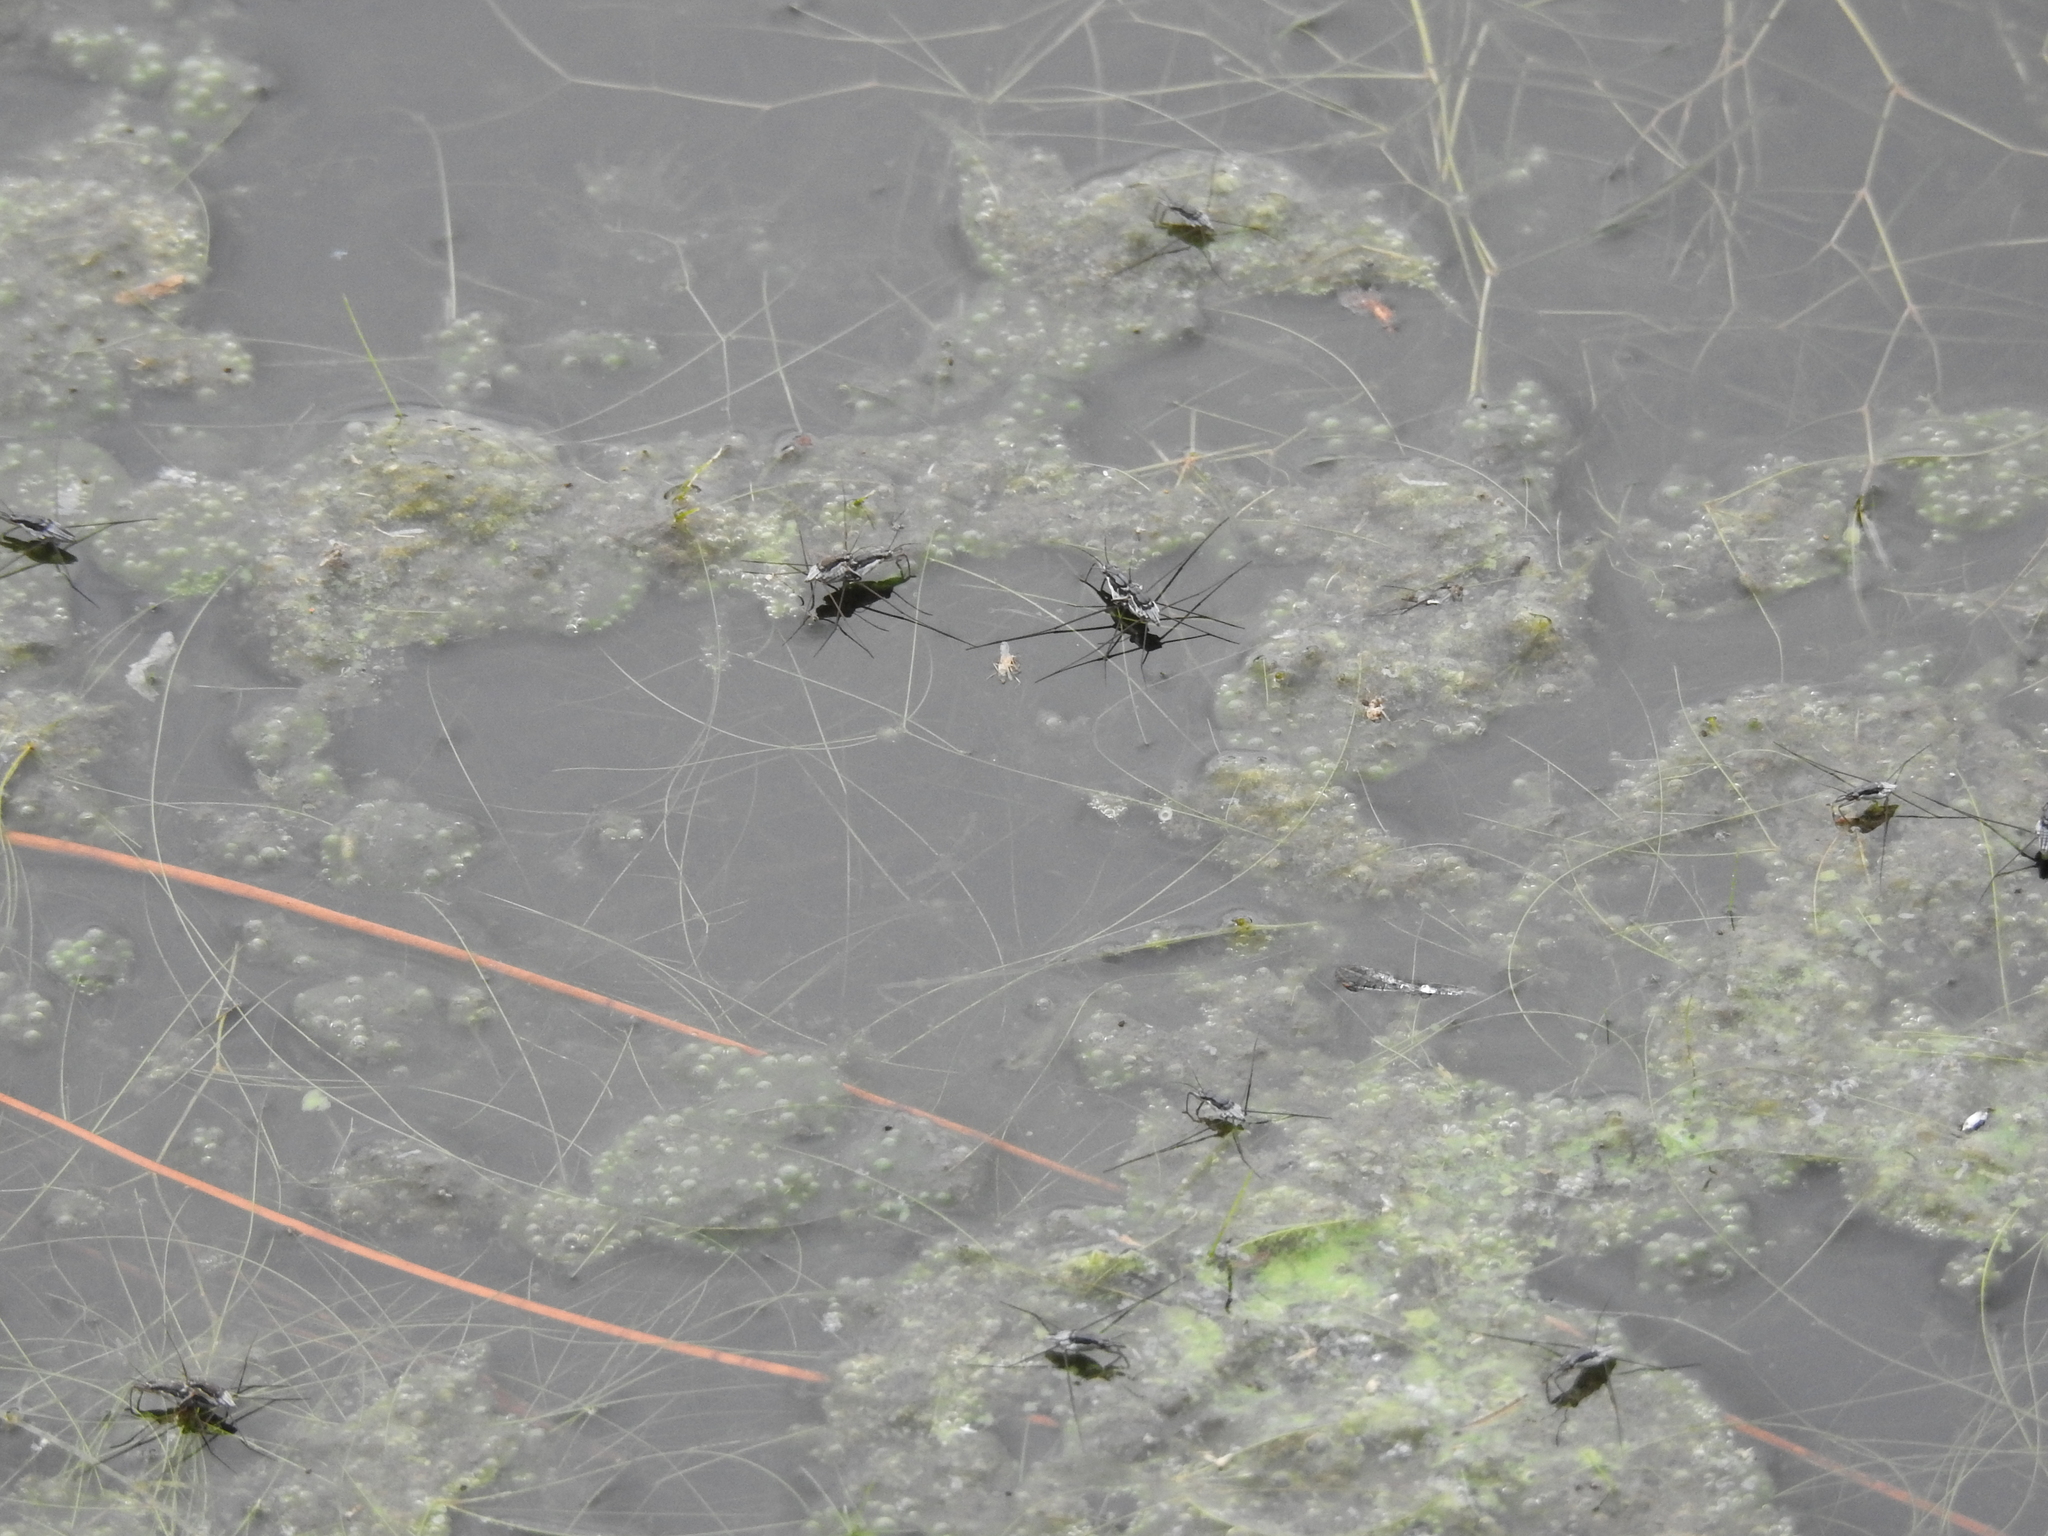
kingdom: Animalia
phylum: Arthropoda
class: Insecta
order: Hemiptera
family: Gerridae
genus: Neogerris
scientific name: Neogerris hesione
